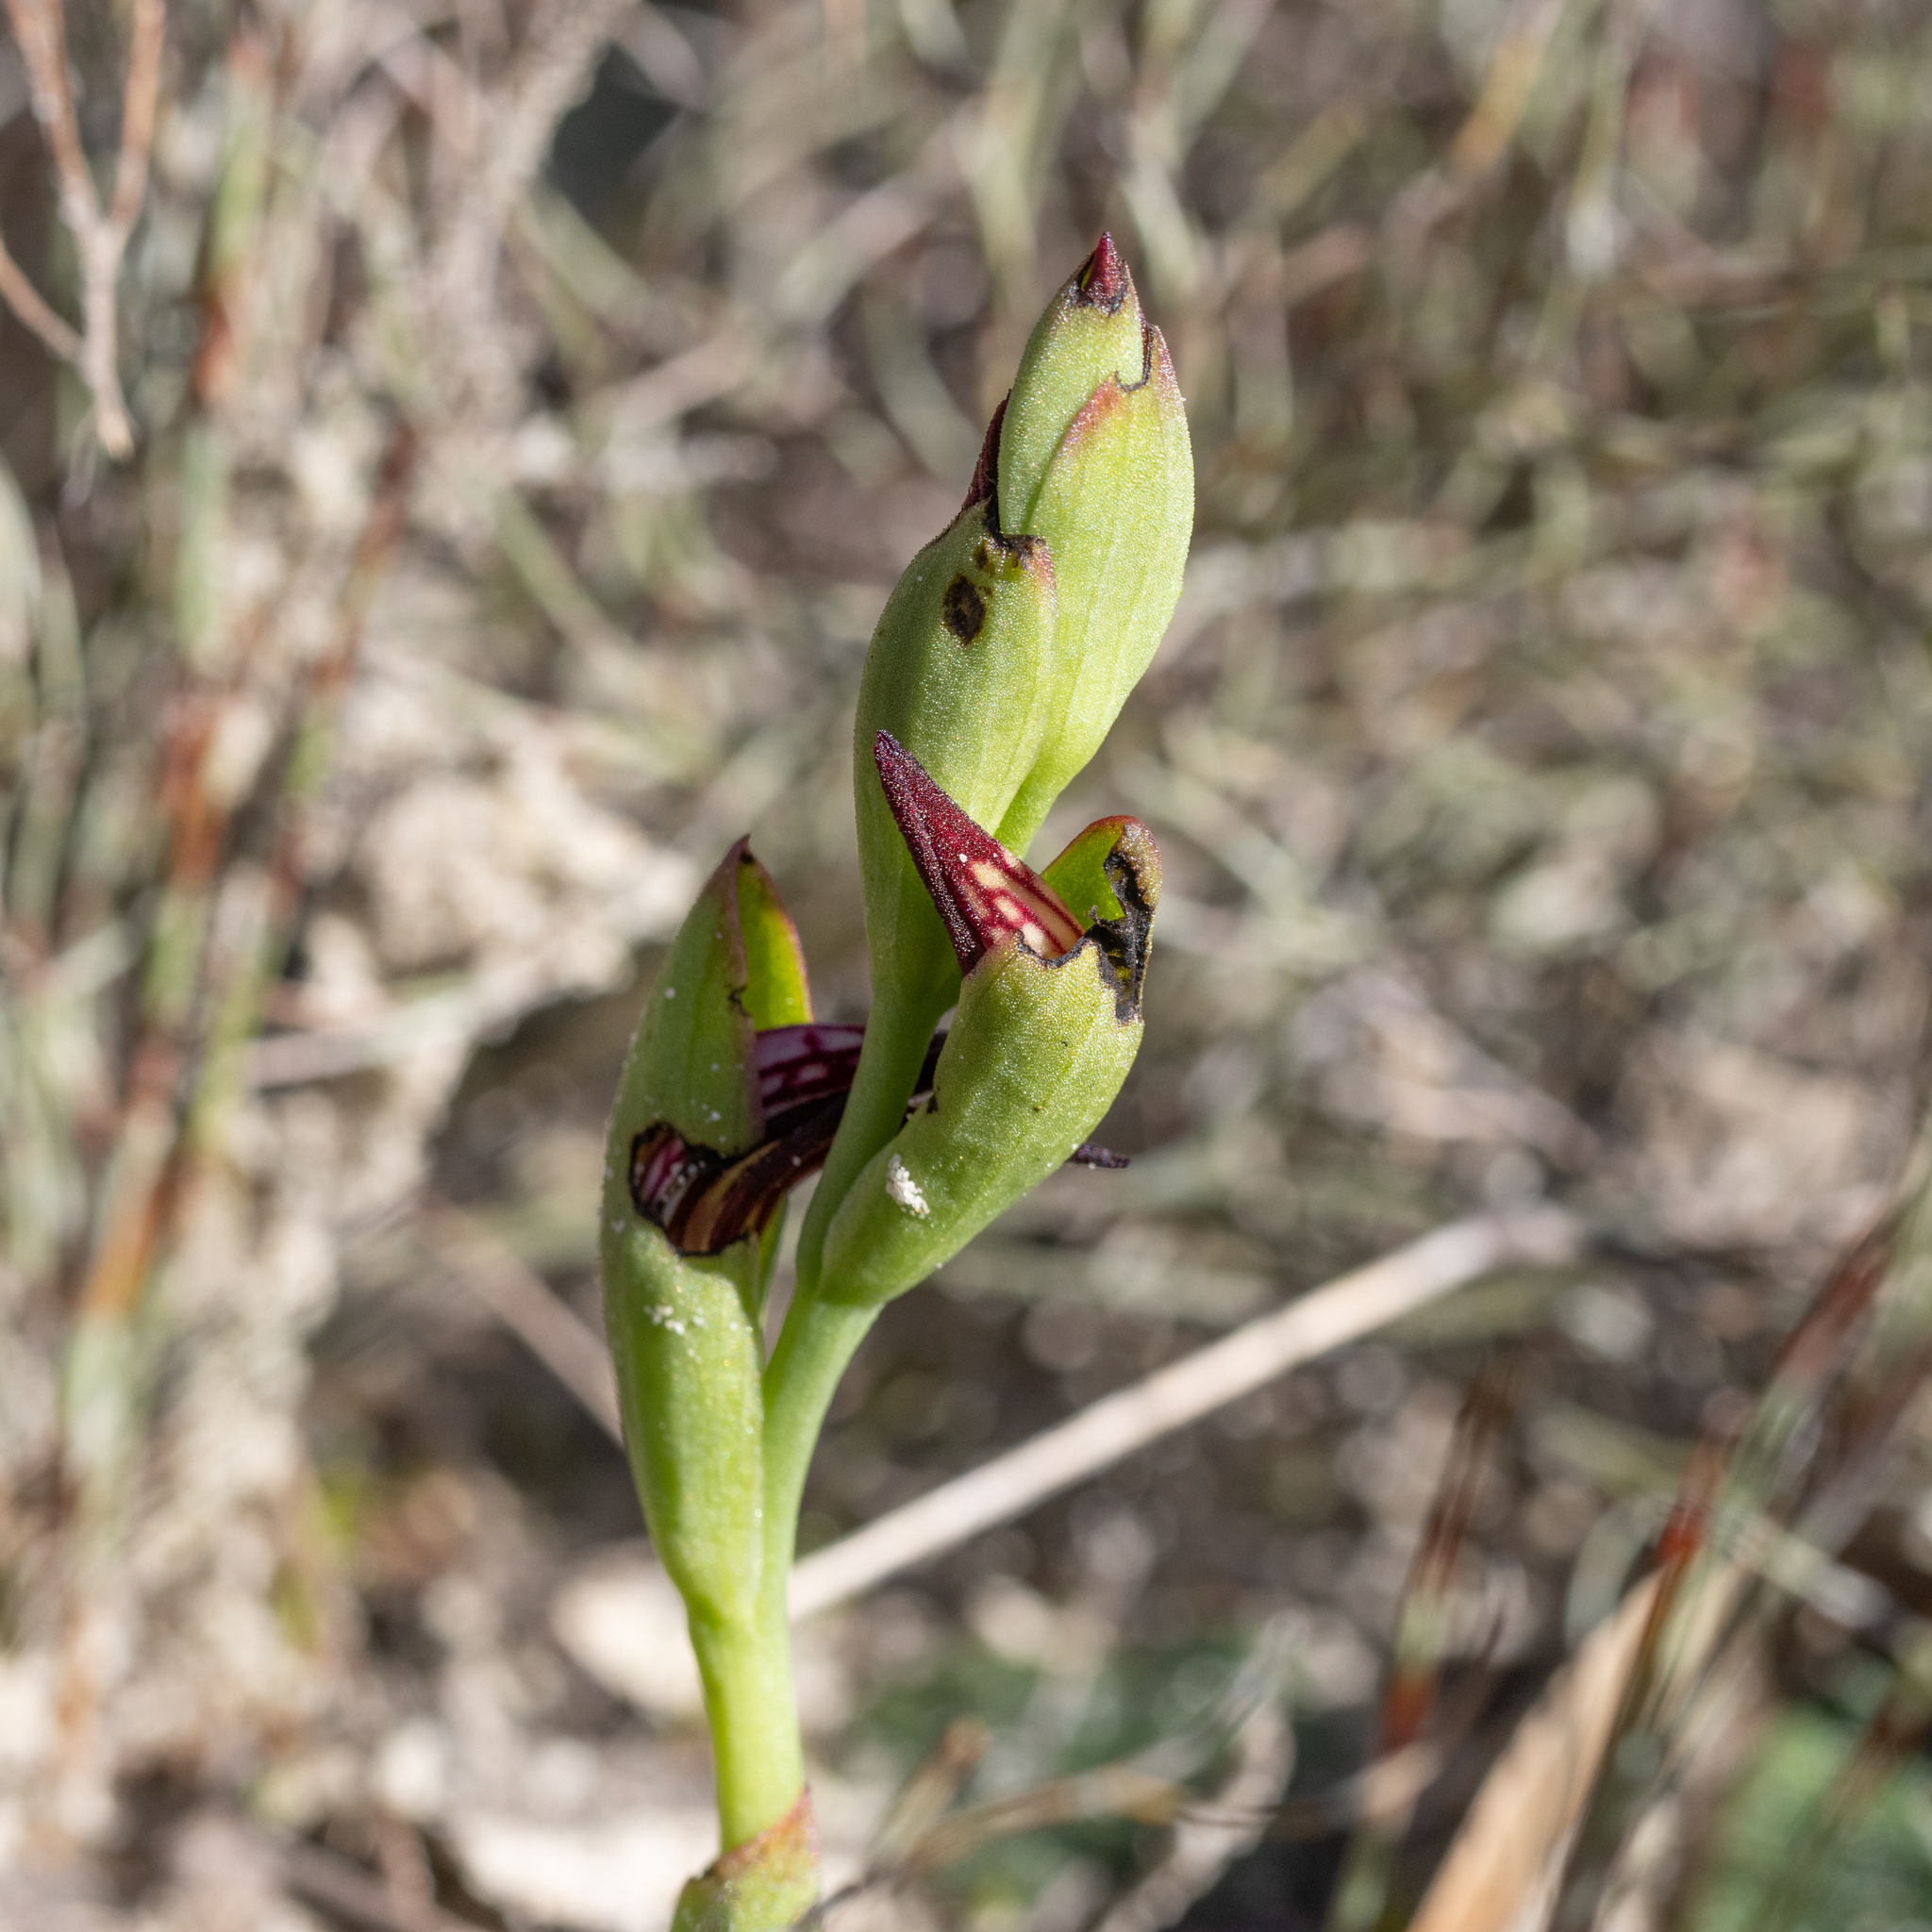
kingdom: Plantae
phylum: Tracheophyta
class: Liliopsida
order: Asparagales
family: Orchidaceae
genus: Pyrorchis
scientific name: Pyrorchis nigricans
